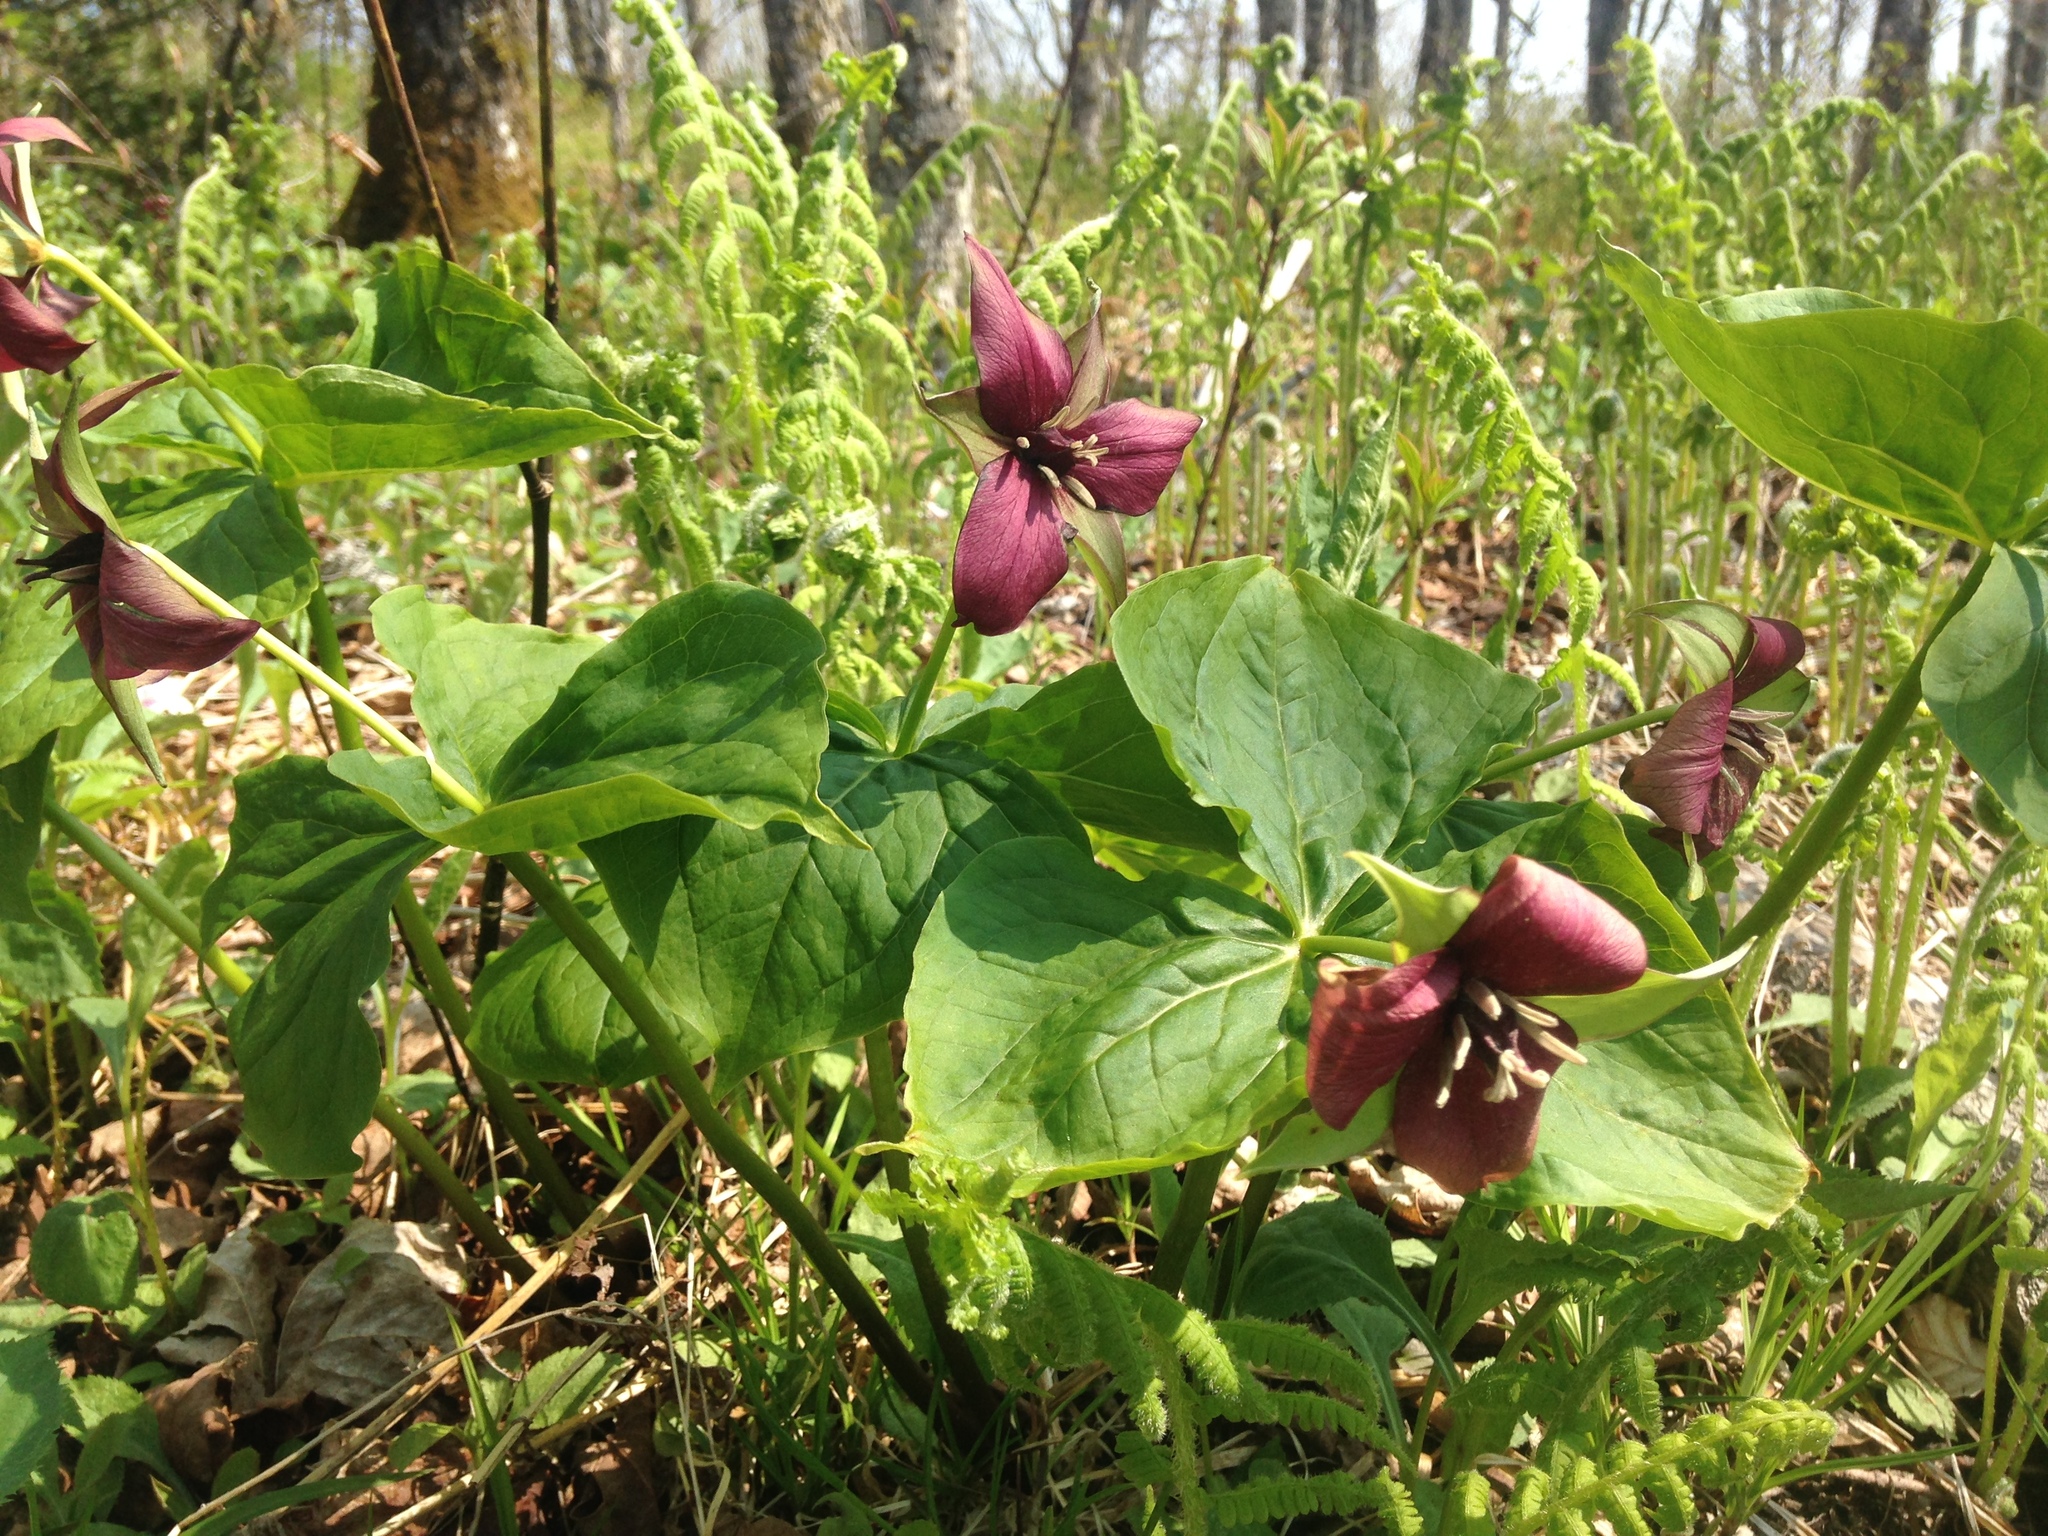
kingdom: Plantae
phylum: Tracheophyta
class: Liliopsida
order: Liliales
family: Melanthiaceae
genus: Trillium
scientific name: Trillium erectum
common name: Purple trillium
